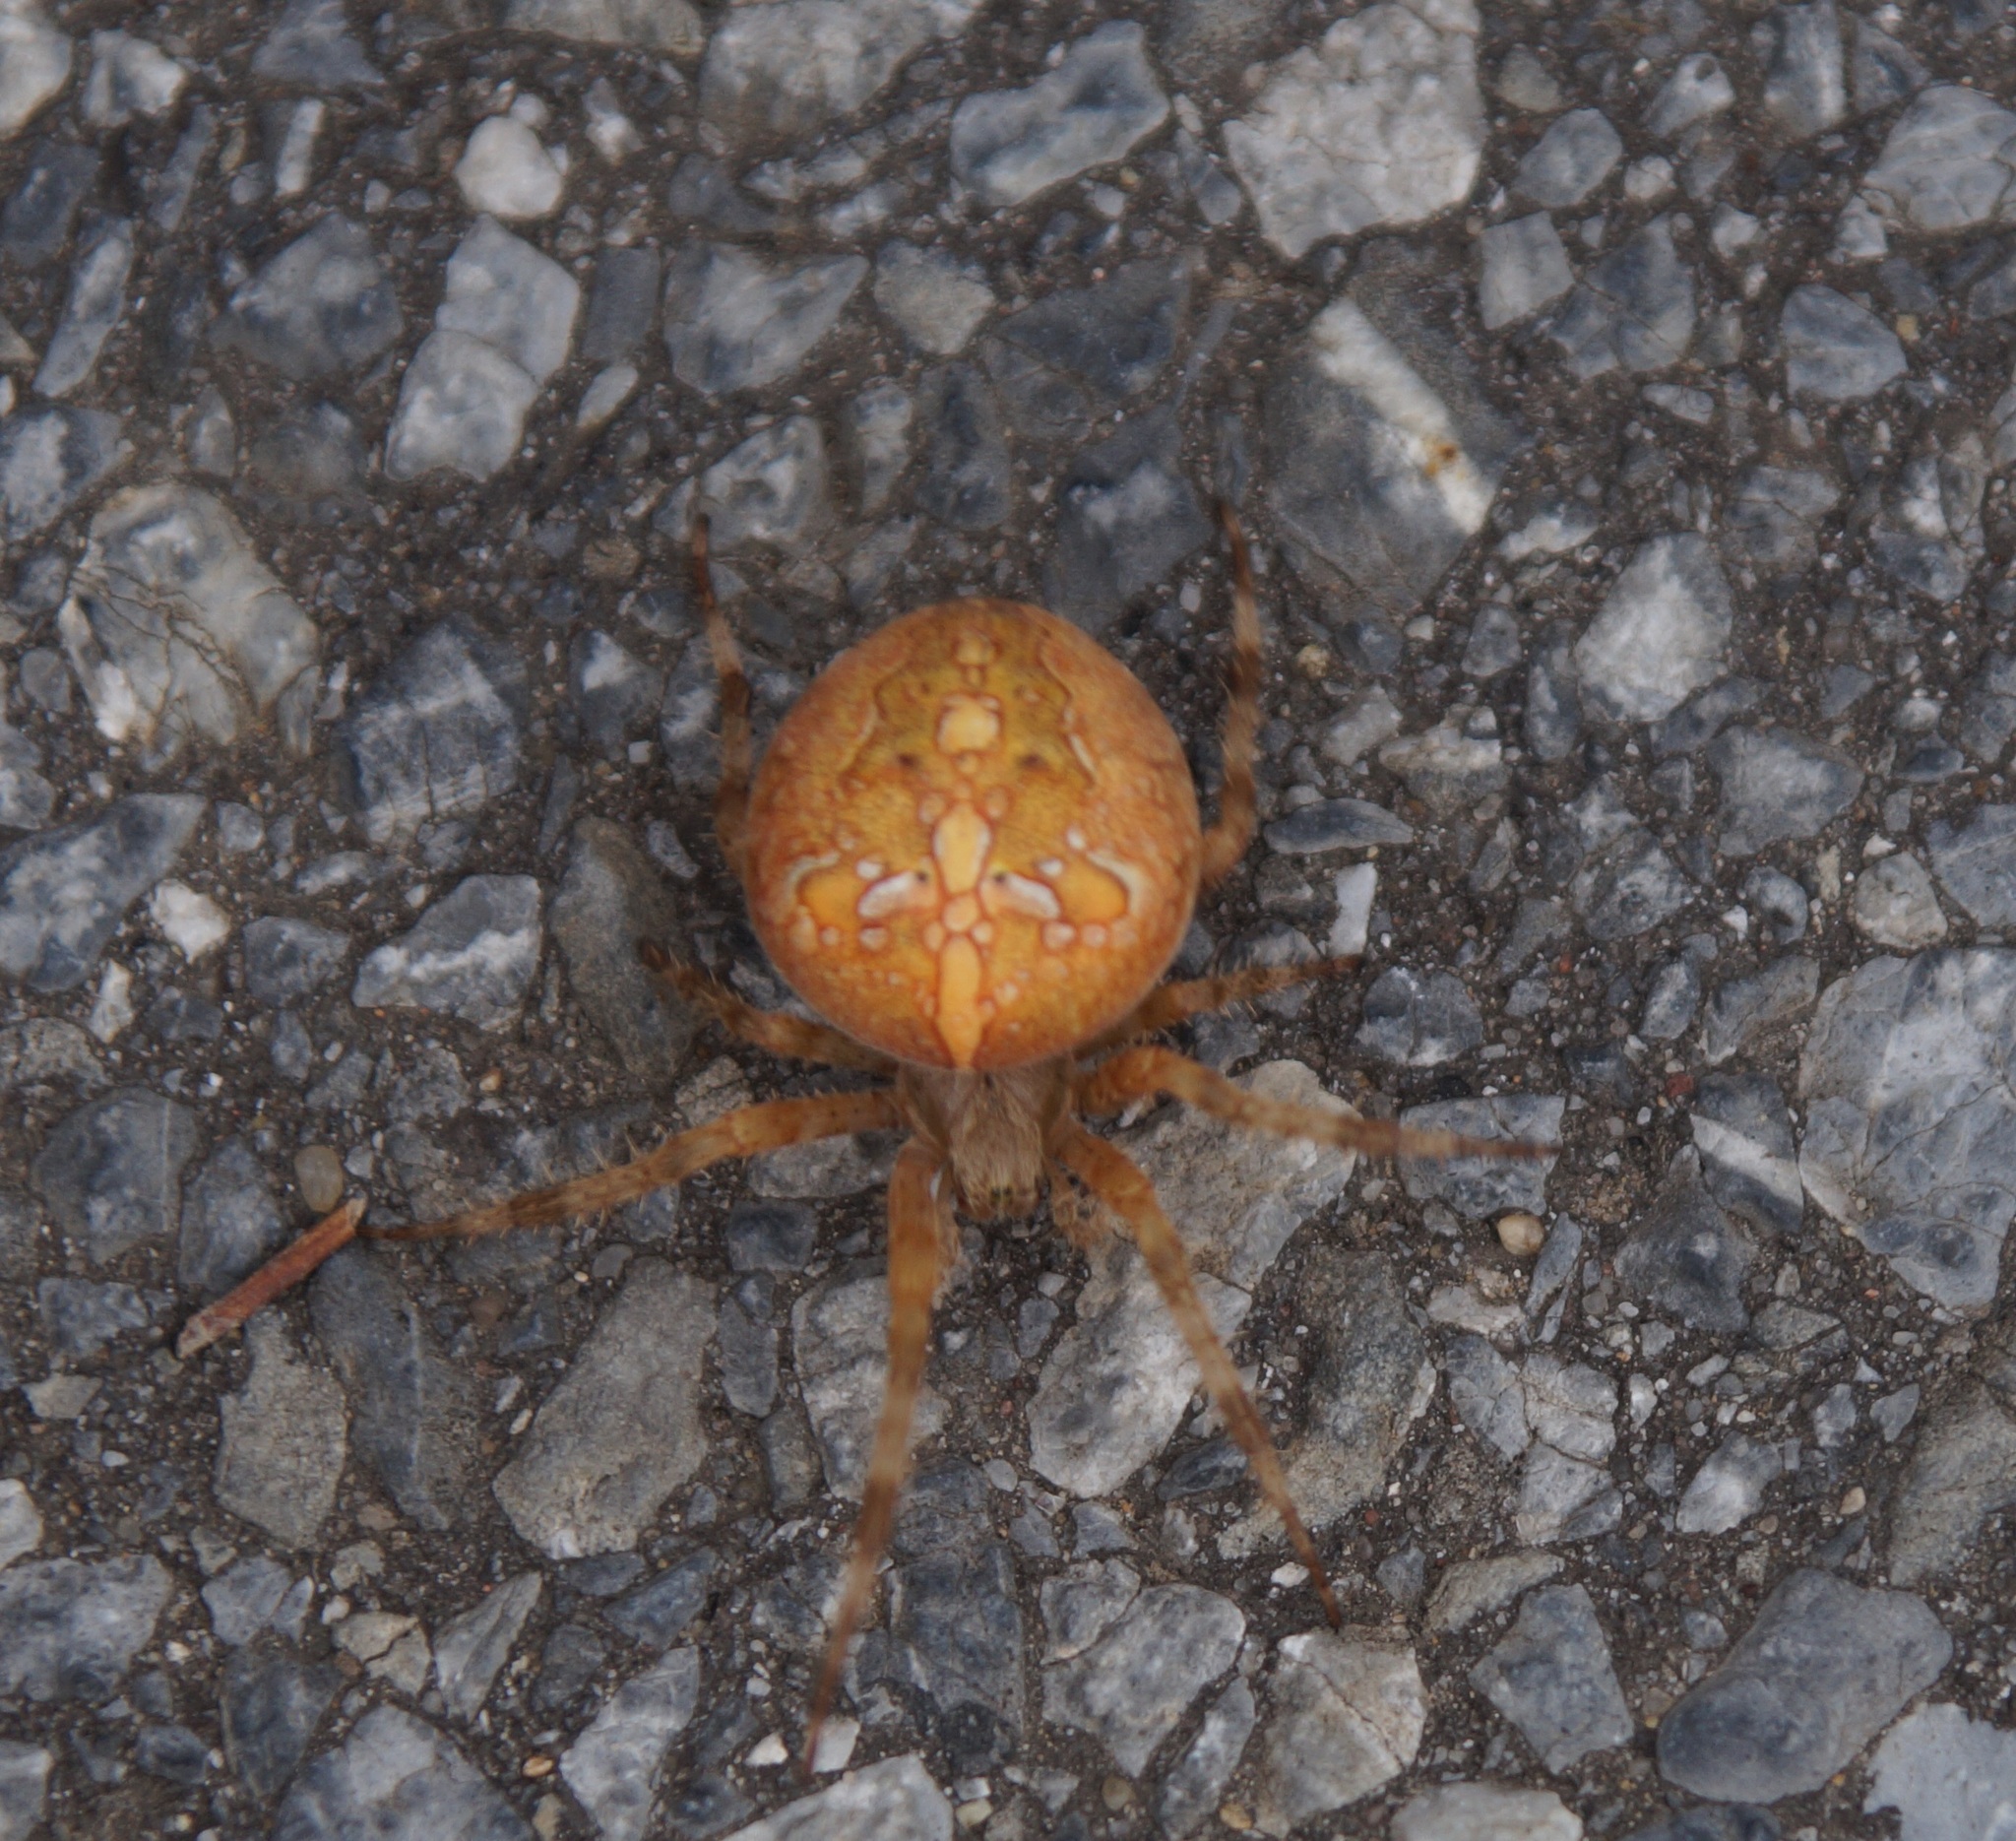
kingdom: Animalia
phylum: Arthropoda
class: Arachnida
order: Araneae
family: Araneidae
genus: Araneus
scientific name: Araneus diadematus
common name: Cross orbweaver
